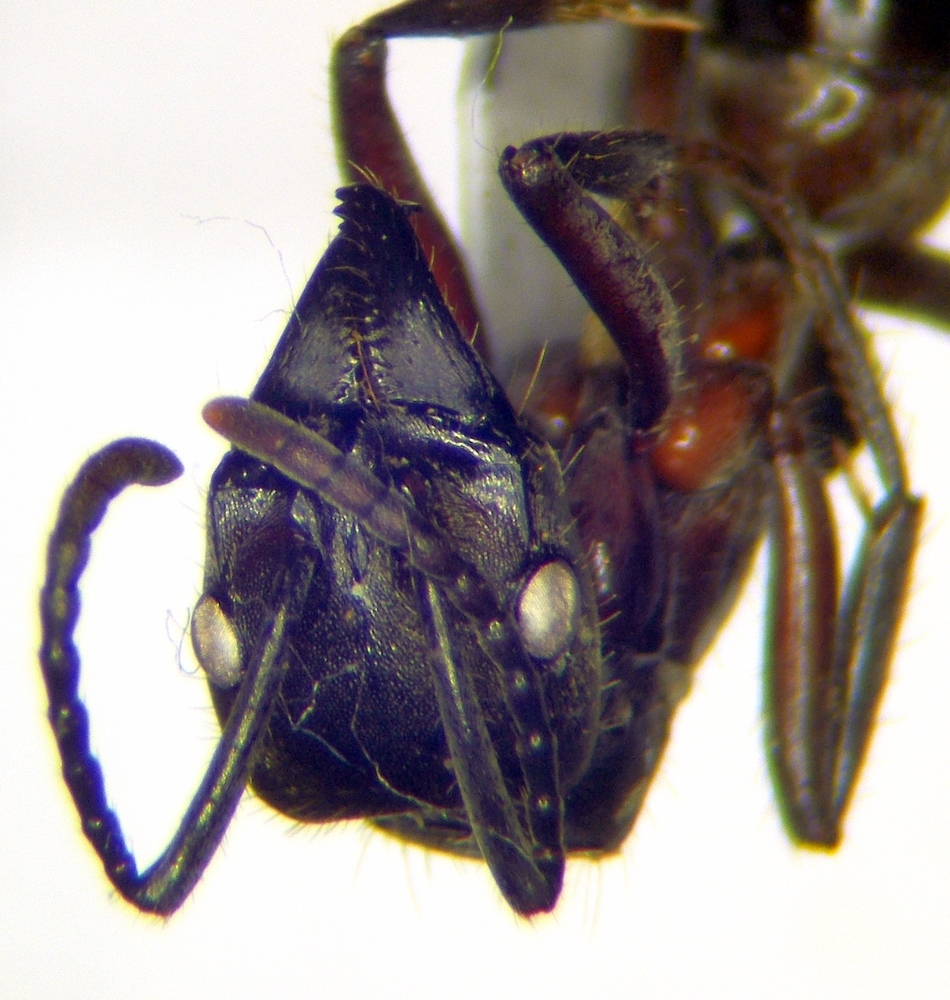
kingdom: Animalia
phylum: Arthropoda
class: Insecta
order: Hymenoptera
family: Formicidae
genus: Pachycondyla
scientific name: Pachycondyla villosa
